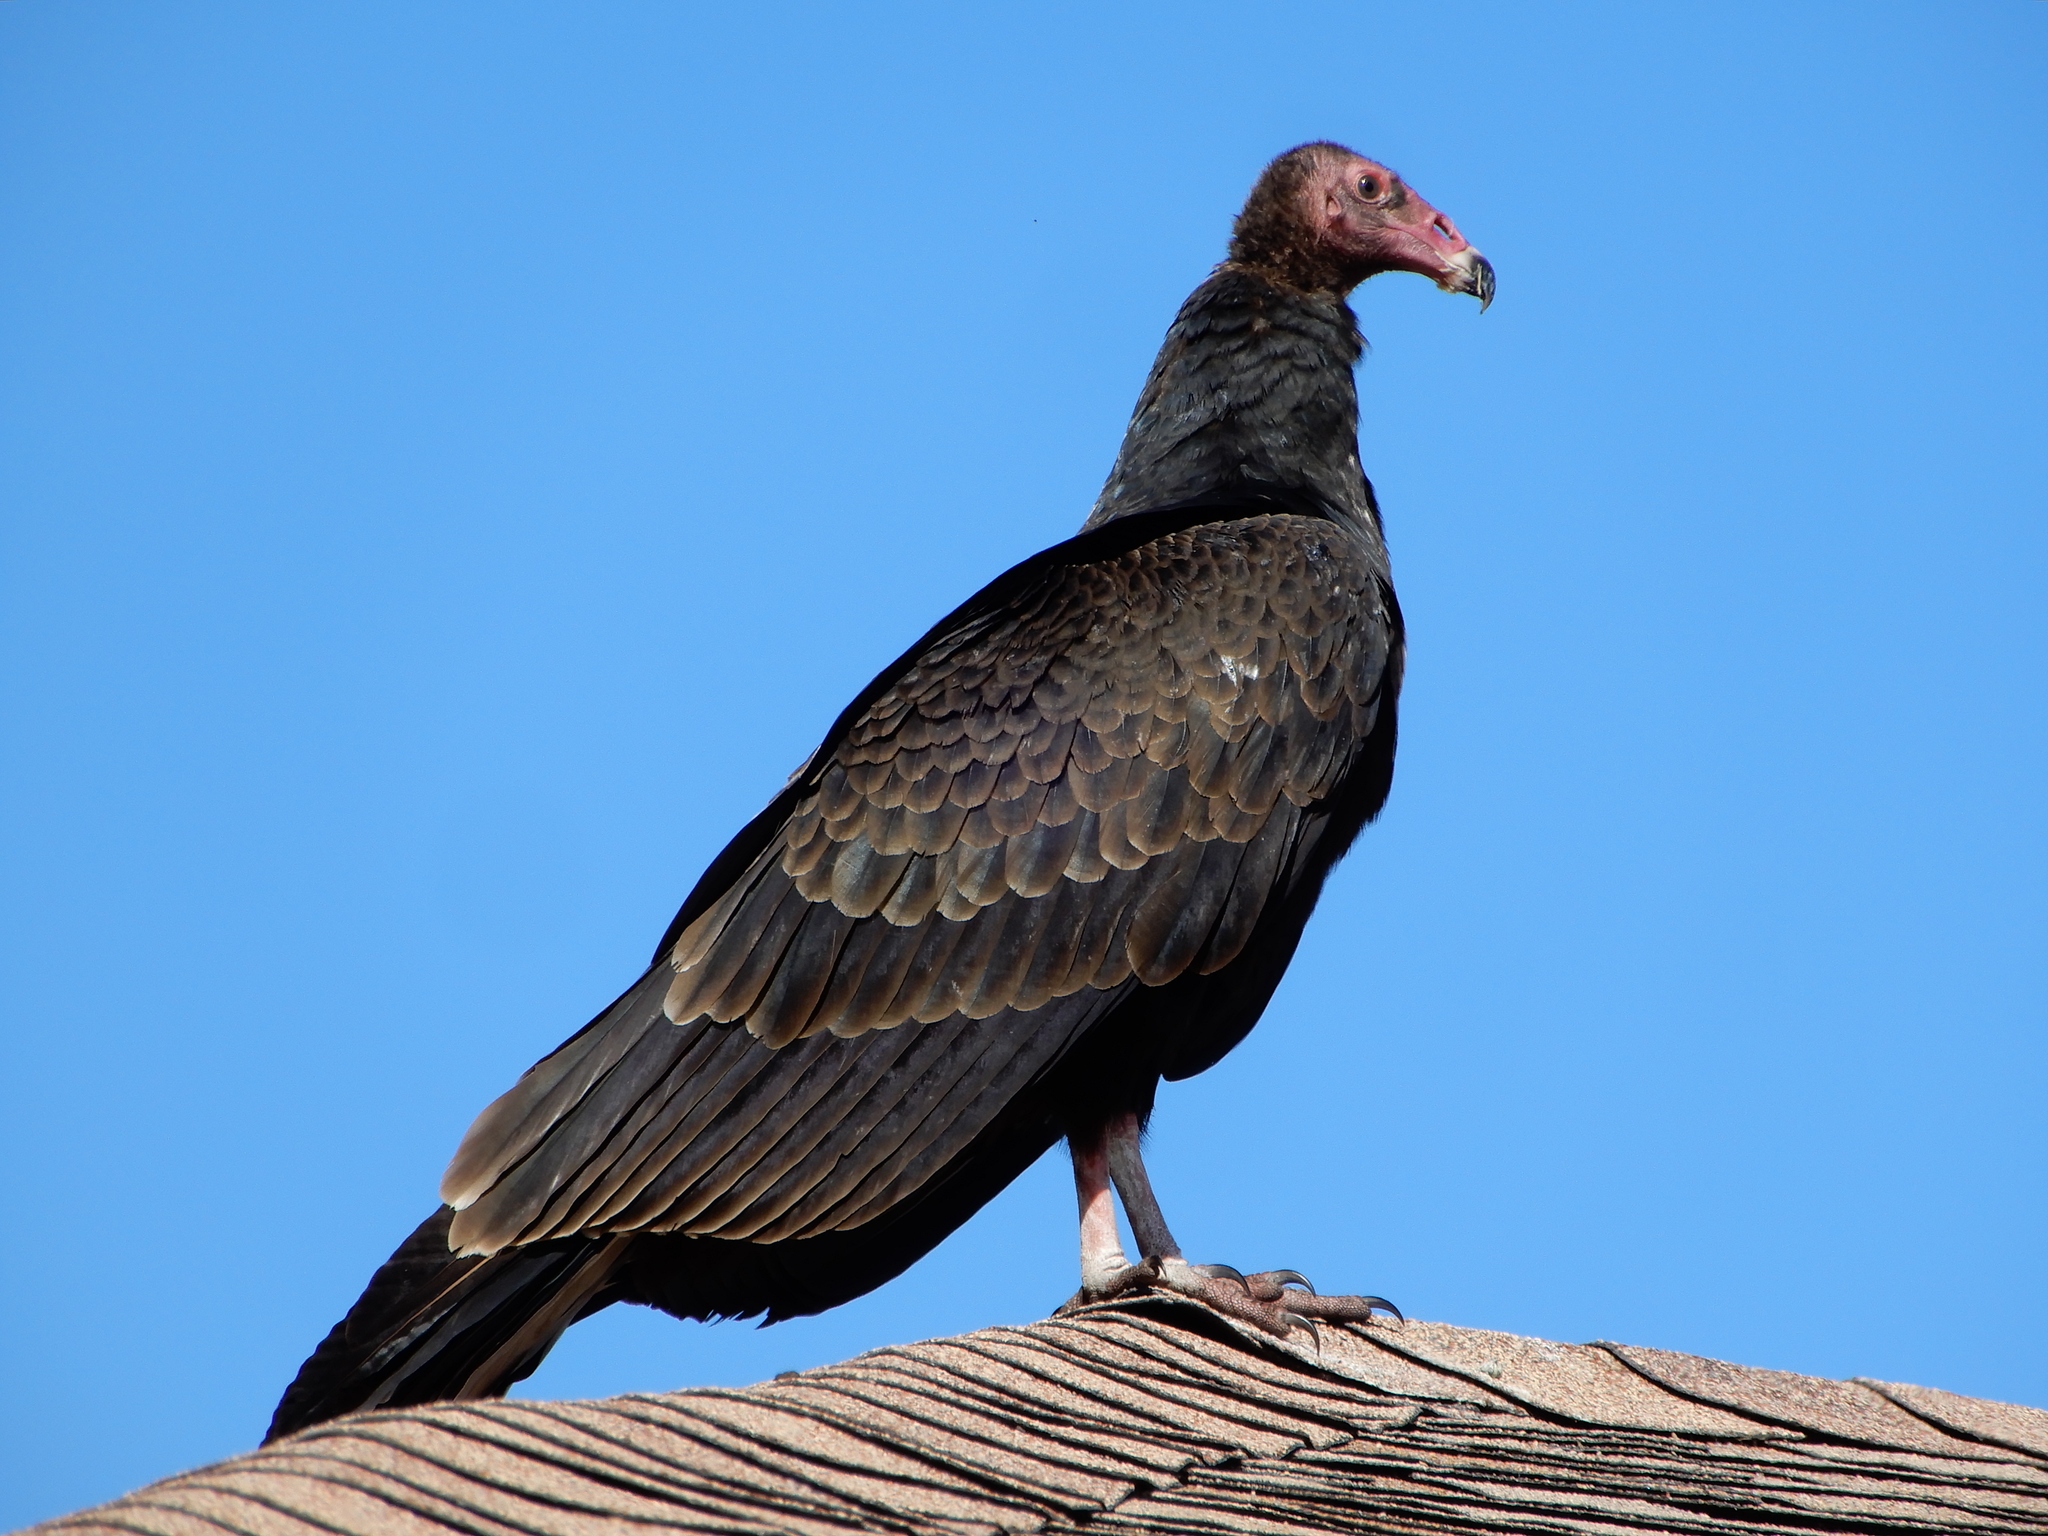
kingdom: Animalia
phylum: Chordata
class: Aves
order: Accipitriformes
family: Cathartidae
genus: Cathartes
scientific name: Cathartes aura
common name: Turkey vulture
